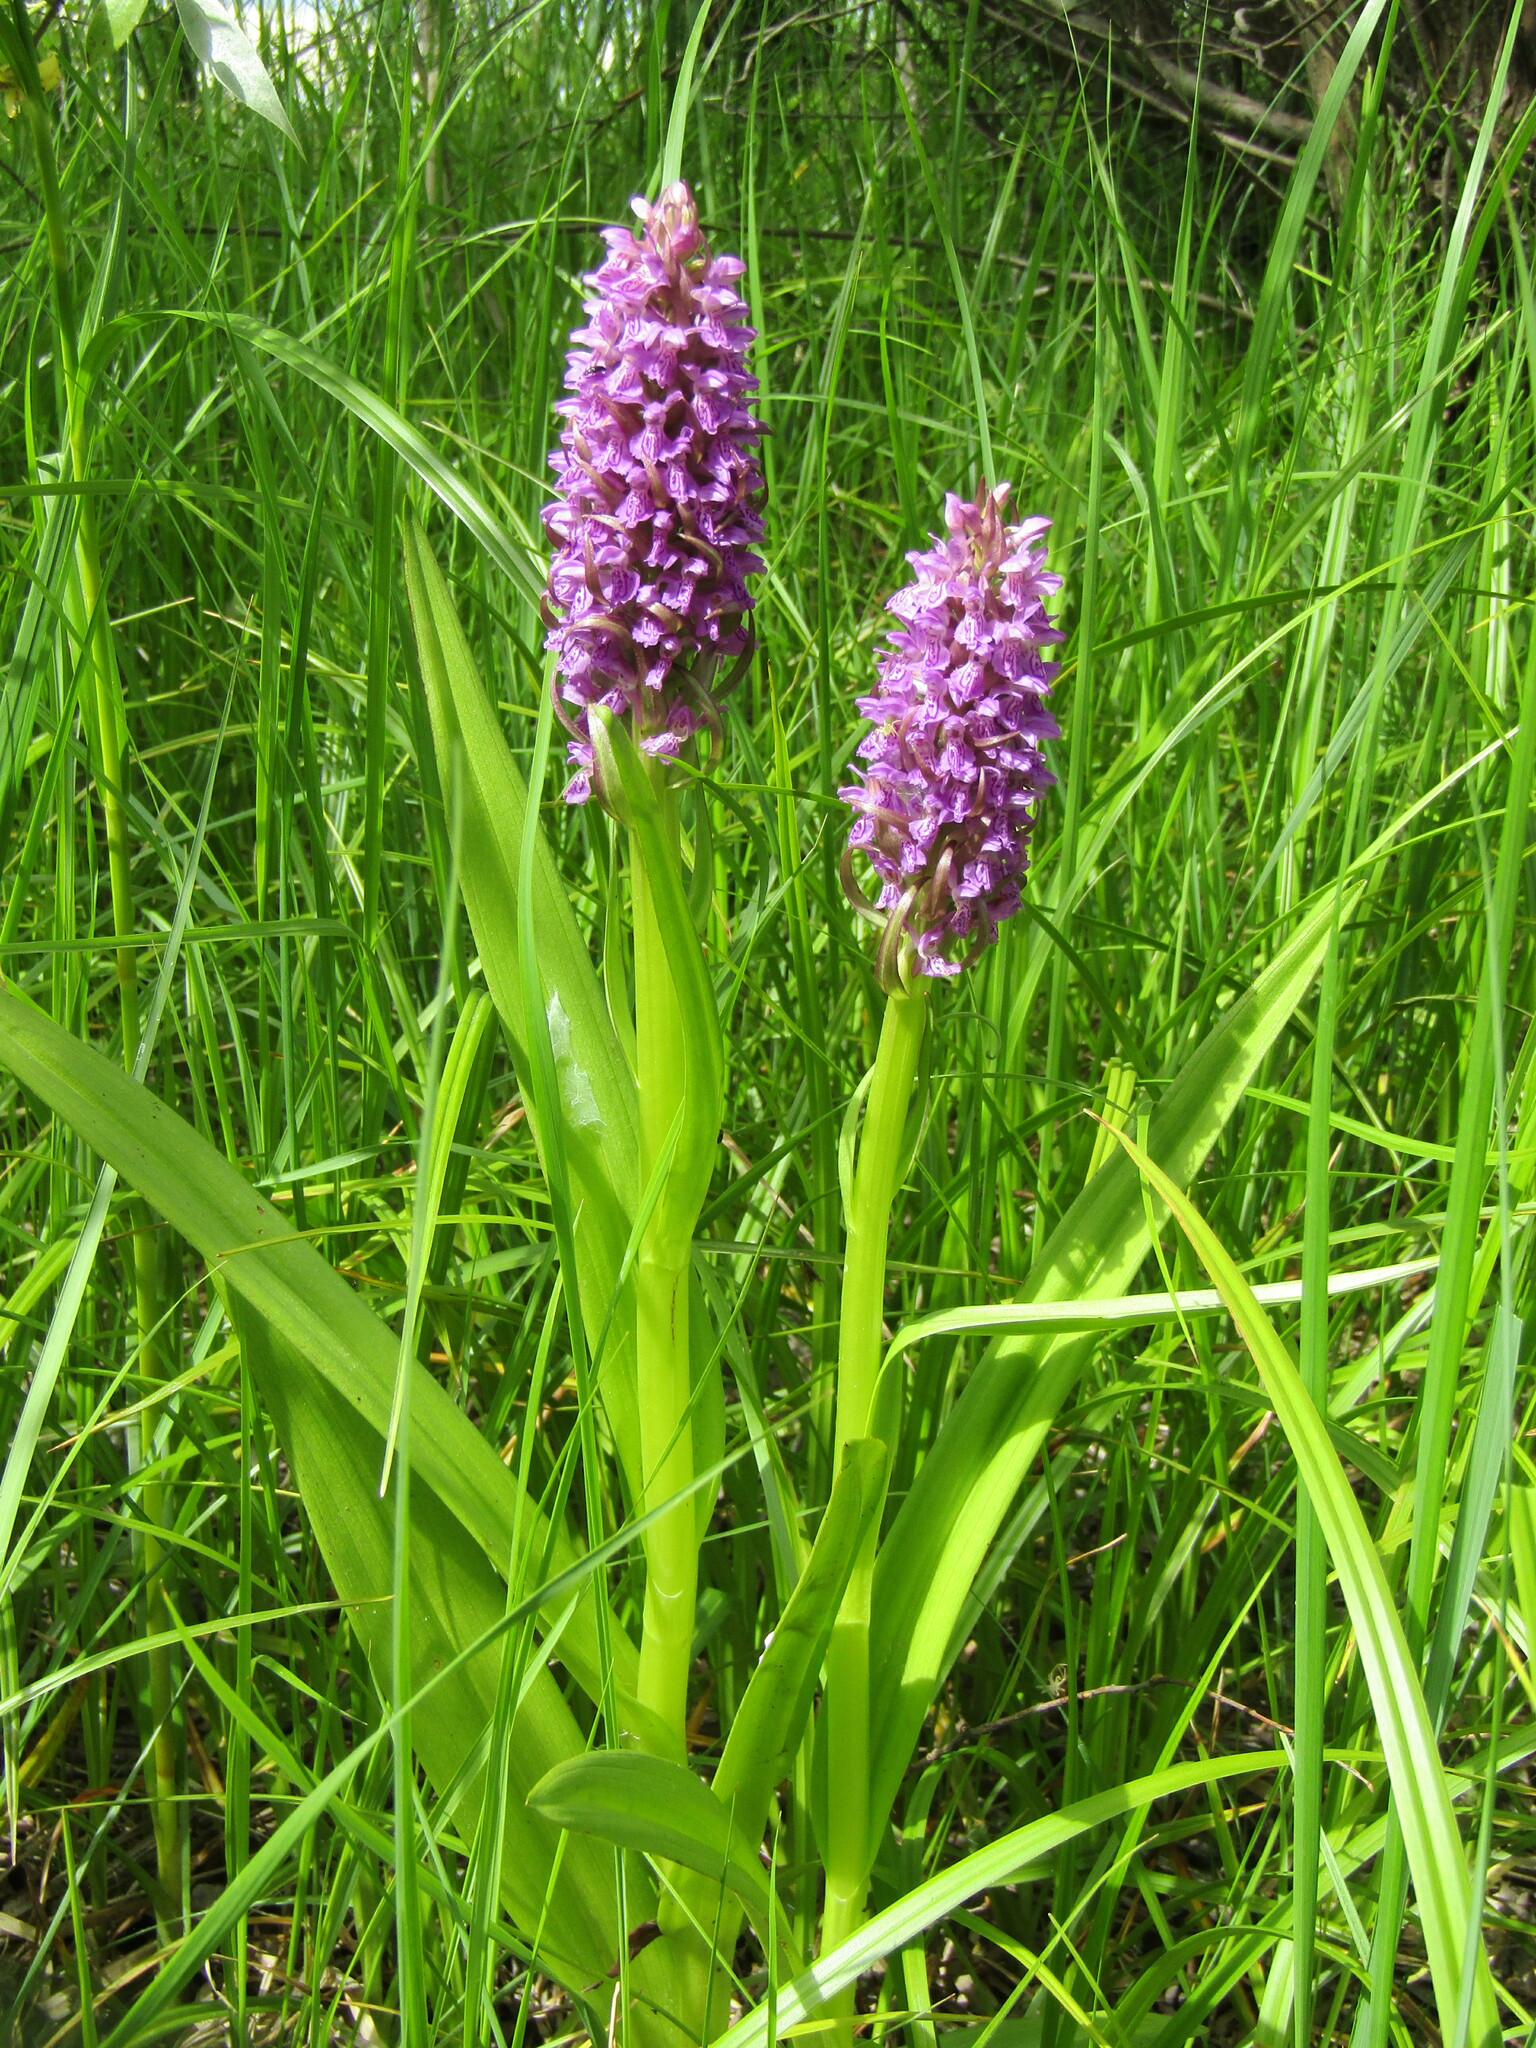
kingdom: Plantae
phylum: Tracheophyta
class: Liliopsida
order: Asparagales
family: Orchidaceae
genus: Dactylorhiza
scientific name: Dactylorhiza incarnata
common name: Early marsh-orchid
